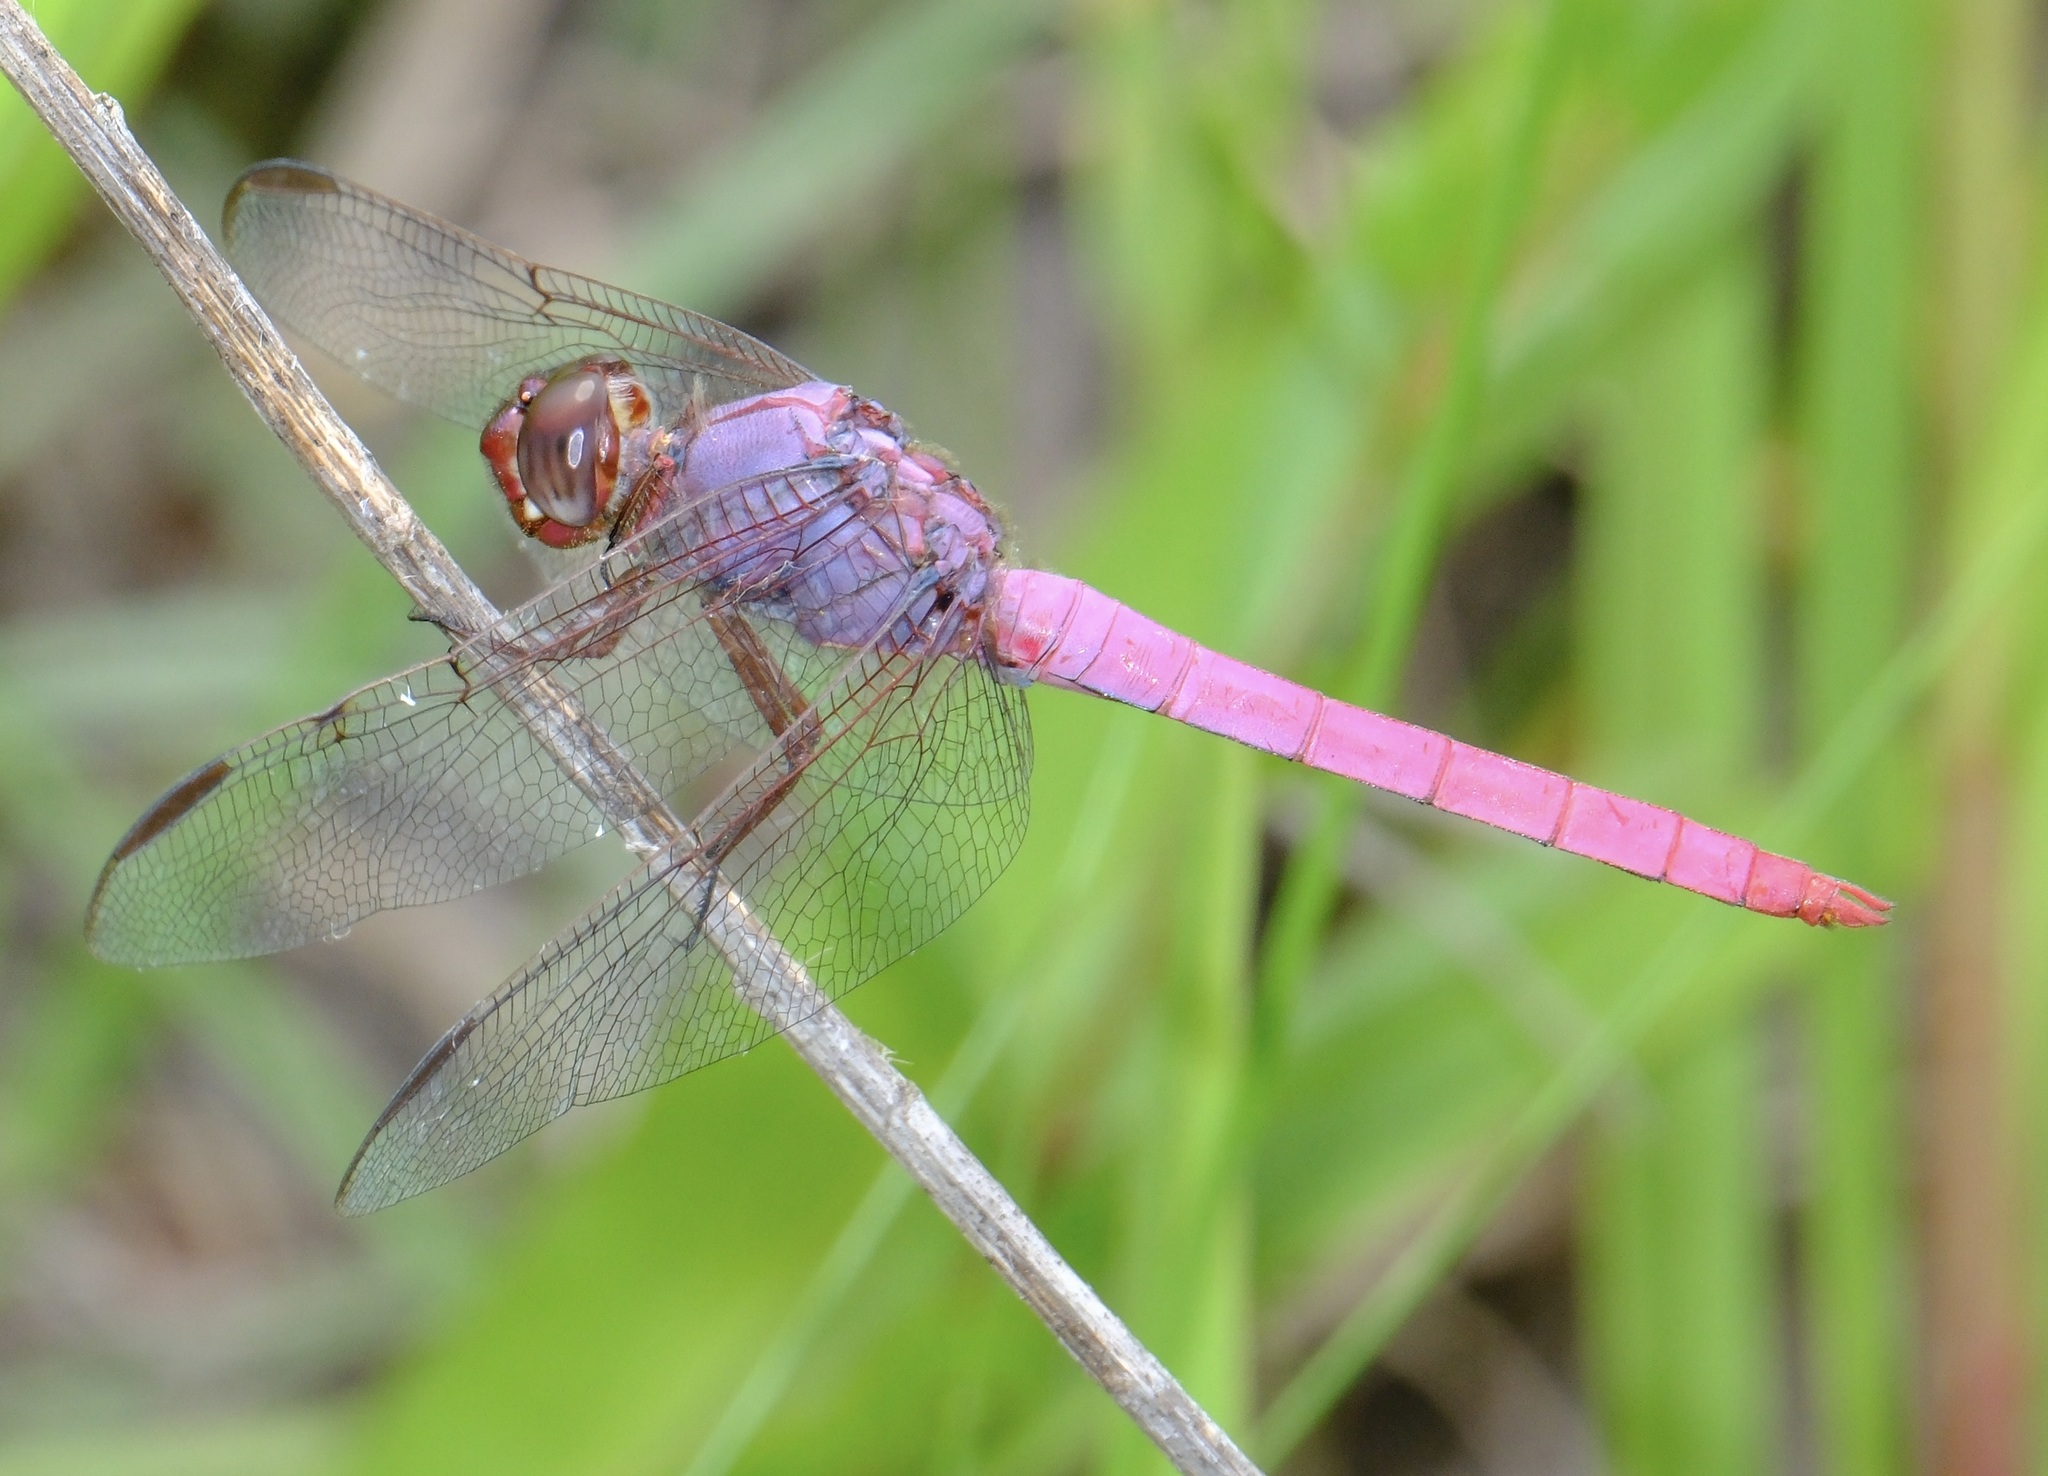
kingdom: Animalia
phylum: Arthropoda
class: Insecta
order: Odonata
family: Libellulidae
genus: Orthemis
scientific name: Orthemis ferruginea
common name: Roseate skimmer
